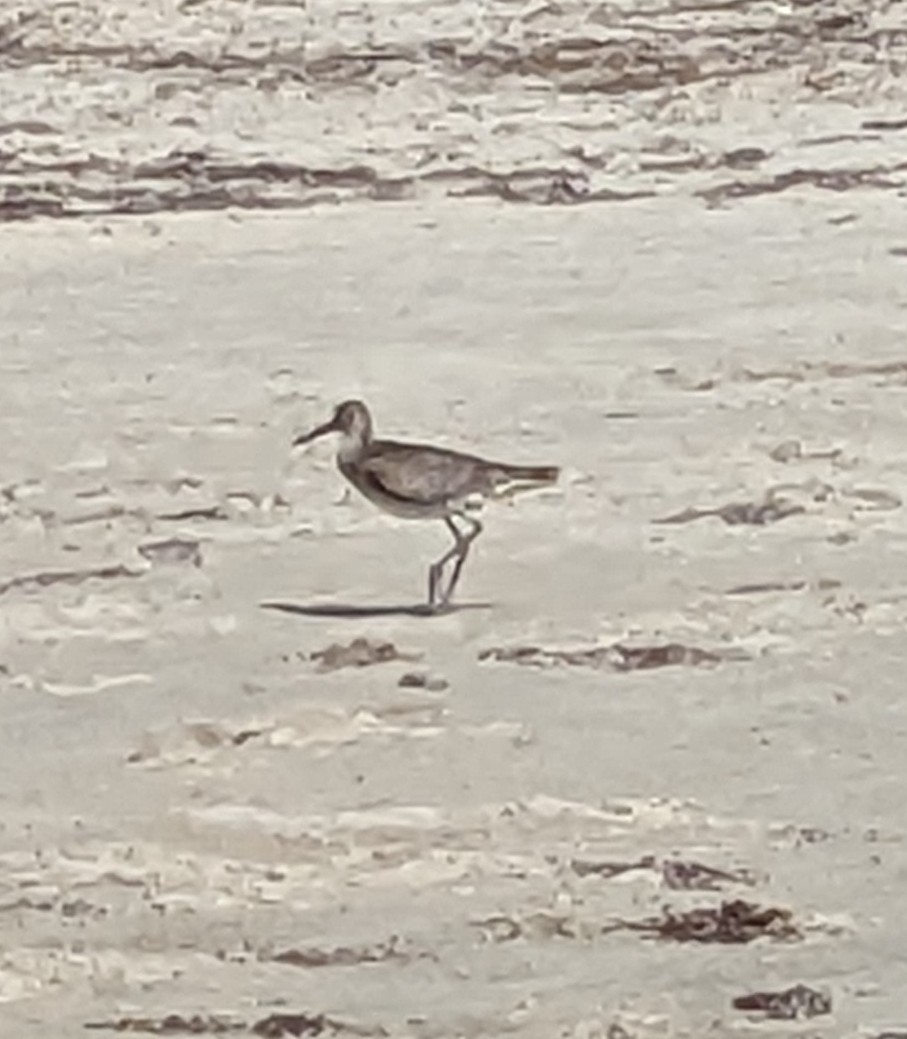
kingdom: Animalia
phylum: Chordata
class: Aves
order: Charadriiformes
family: Scolopacidae
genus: Tringa
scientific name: Tringa semipalmata
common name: Willet
